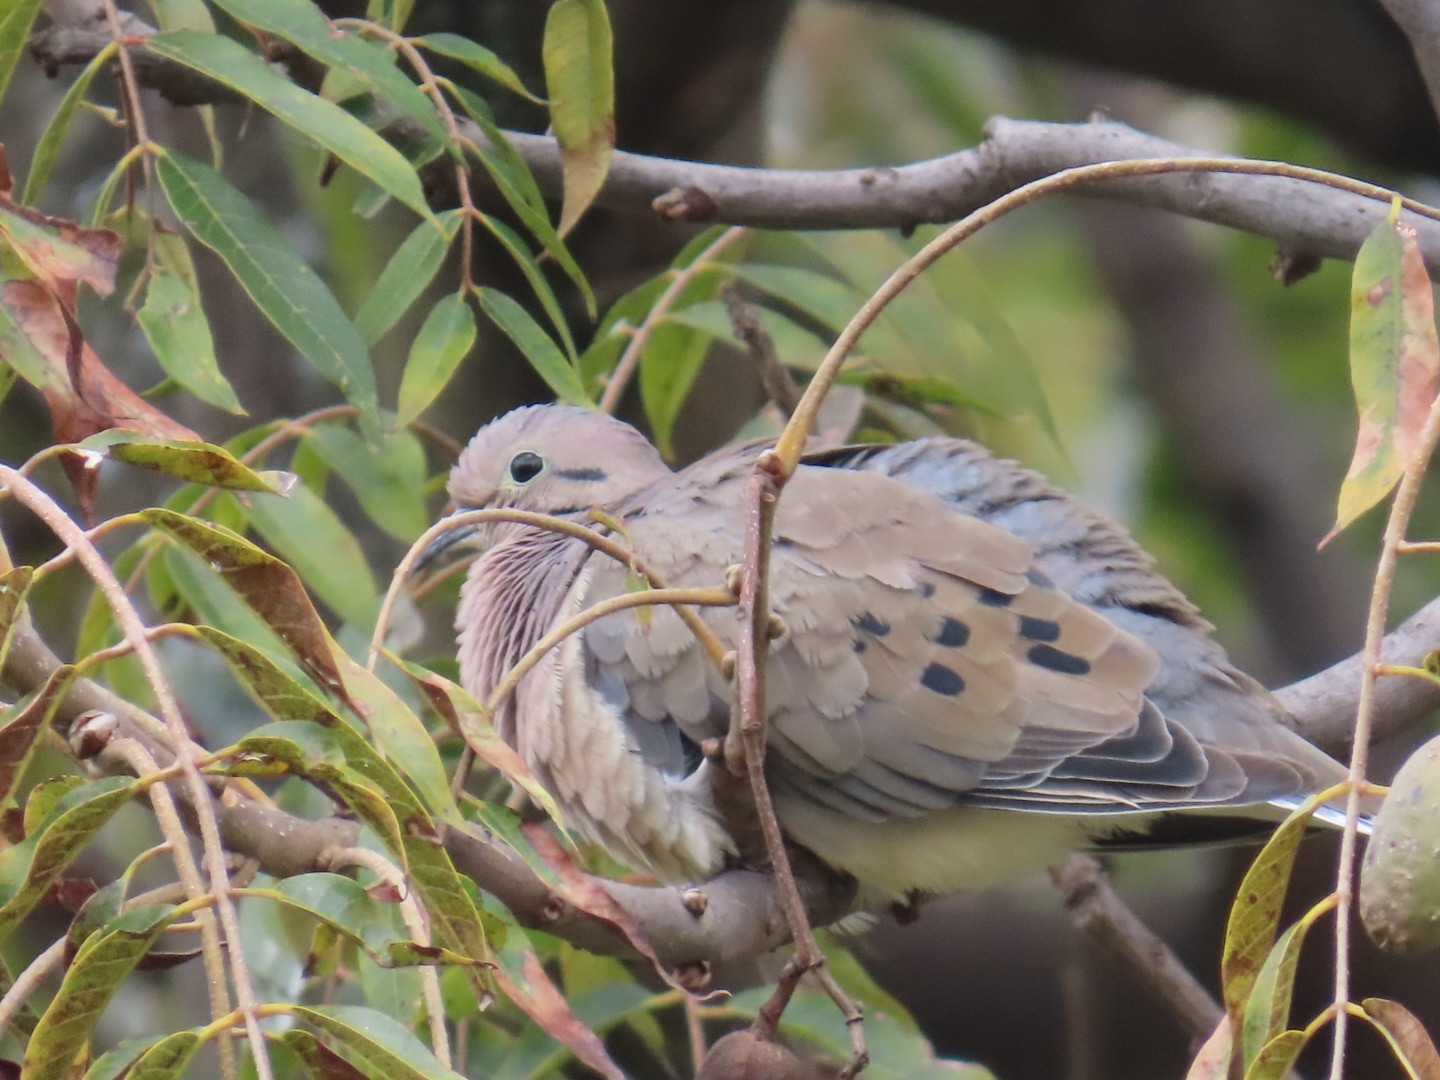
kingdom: Animalia
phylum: Chordata
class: Aves
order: Columbiformes
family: Columbidae
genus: Zenaida
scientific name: Zenaida auriculata
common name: Eared dove
